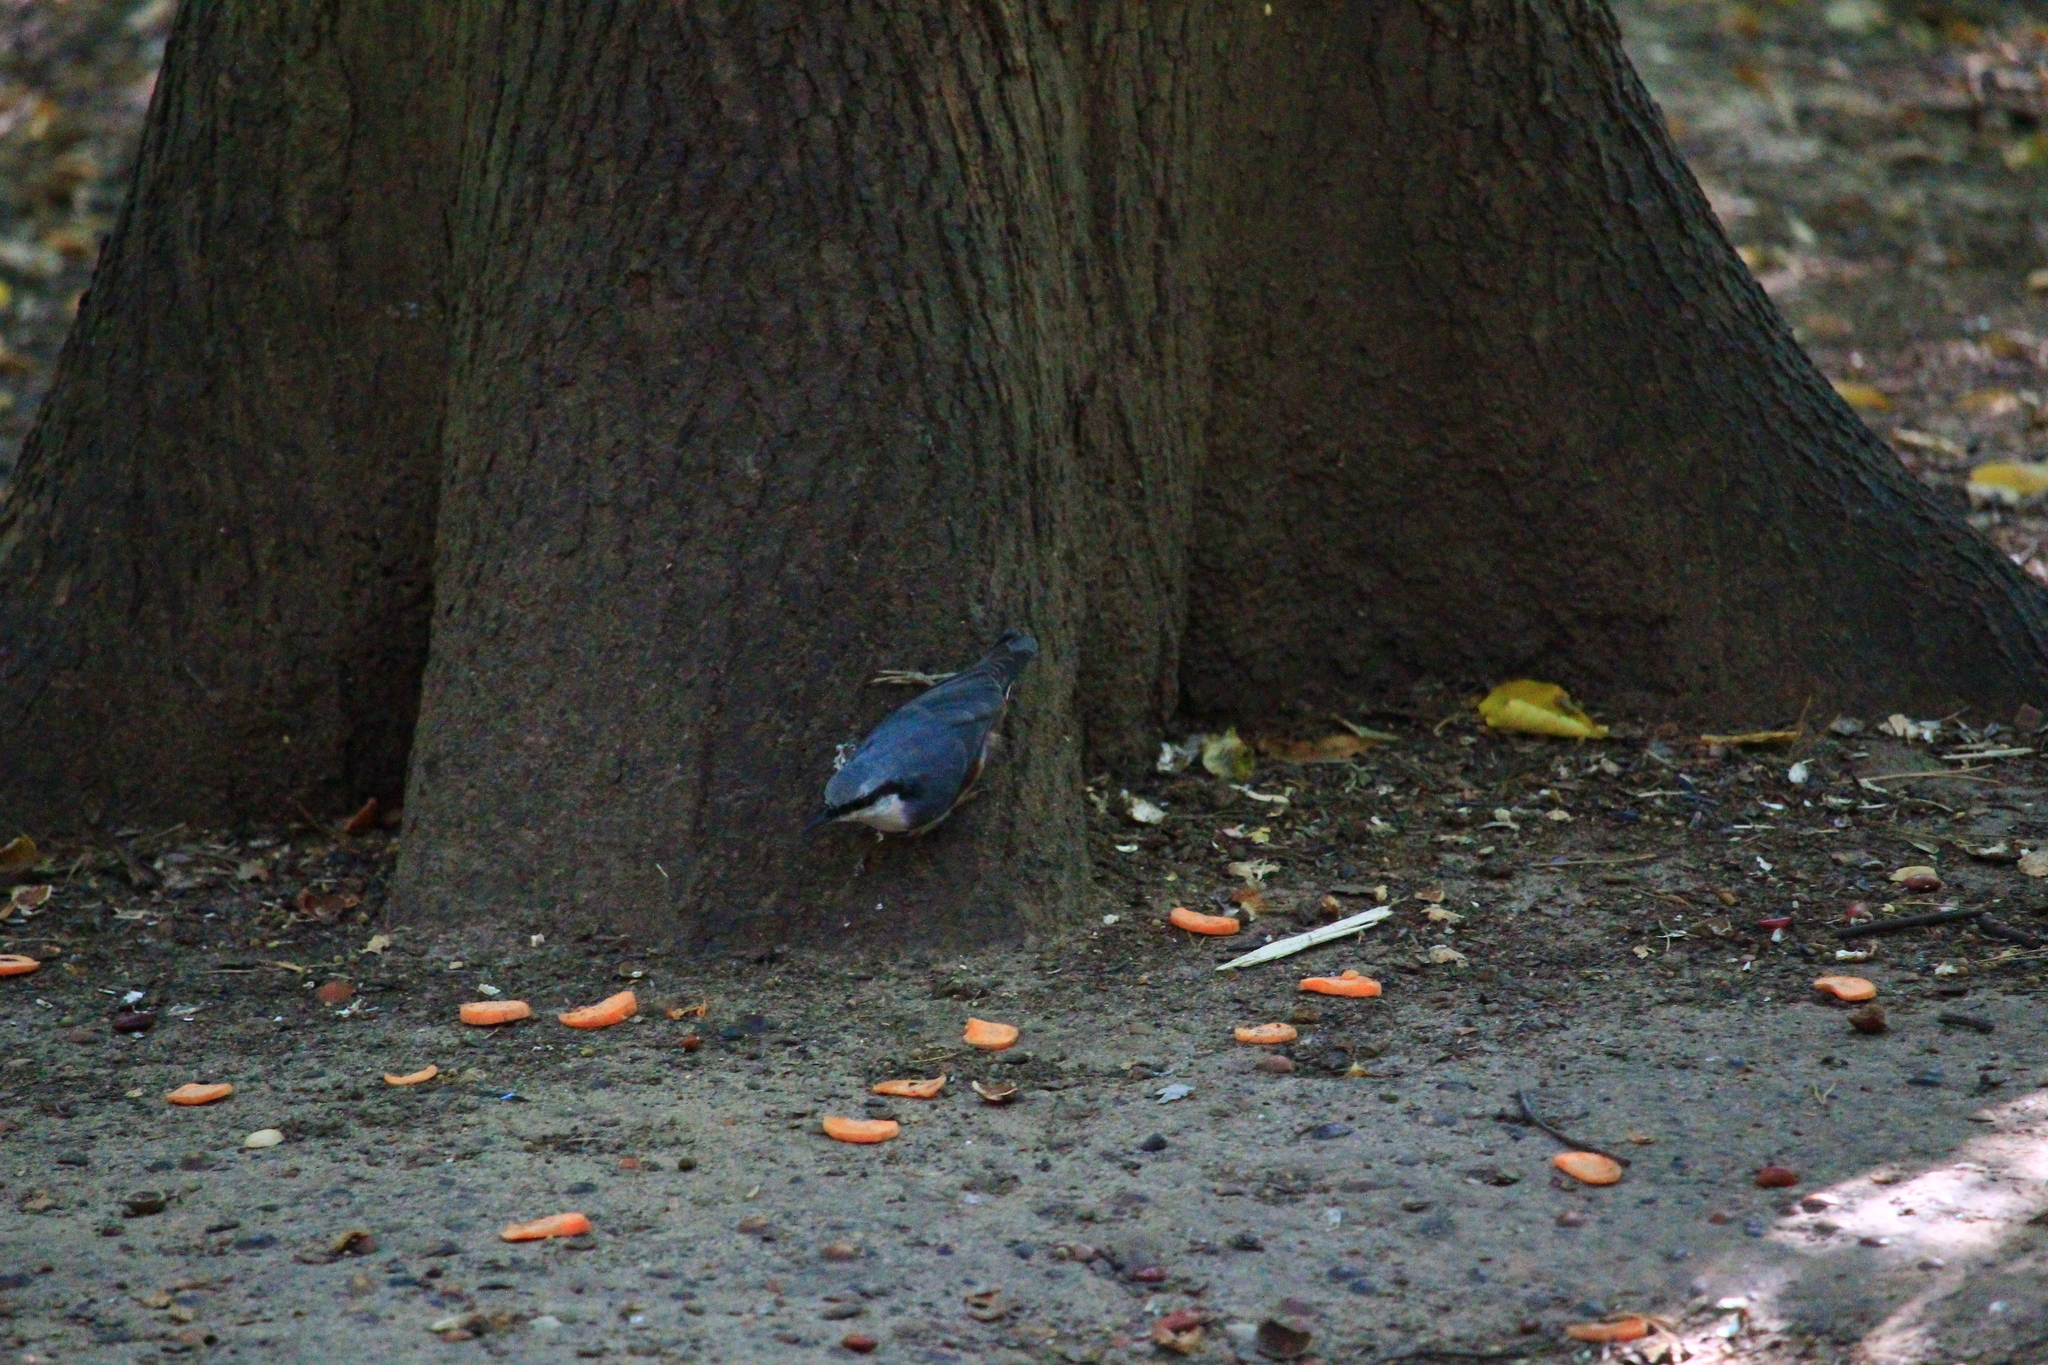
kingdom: Animalia
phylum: Chordata
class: Aves
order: Passeriformes
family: Sittidae
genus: Sitta
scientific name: Sitta europaea
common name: Eurasian nuthatch
